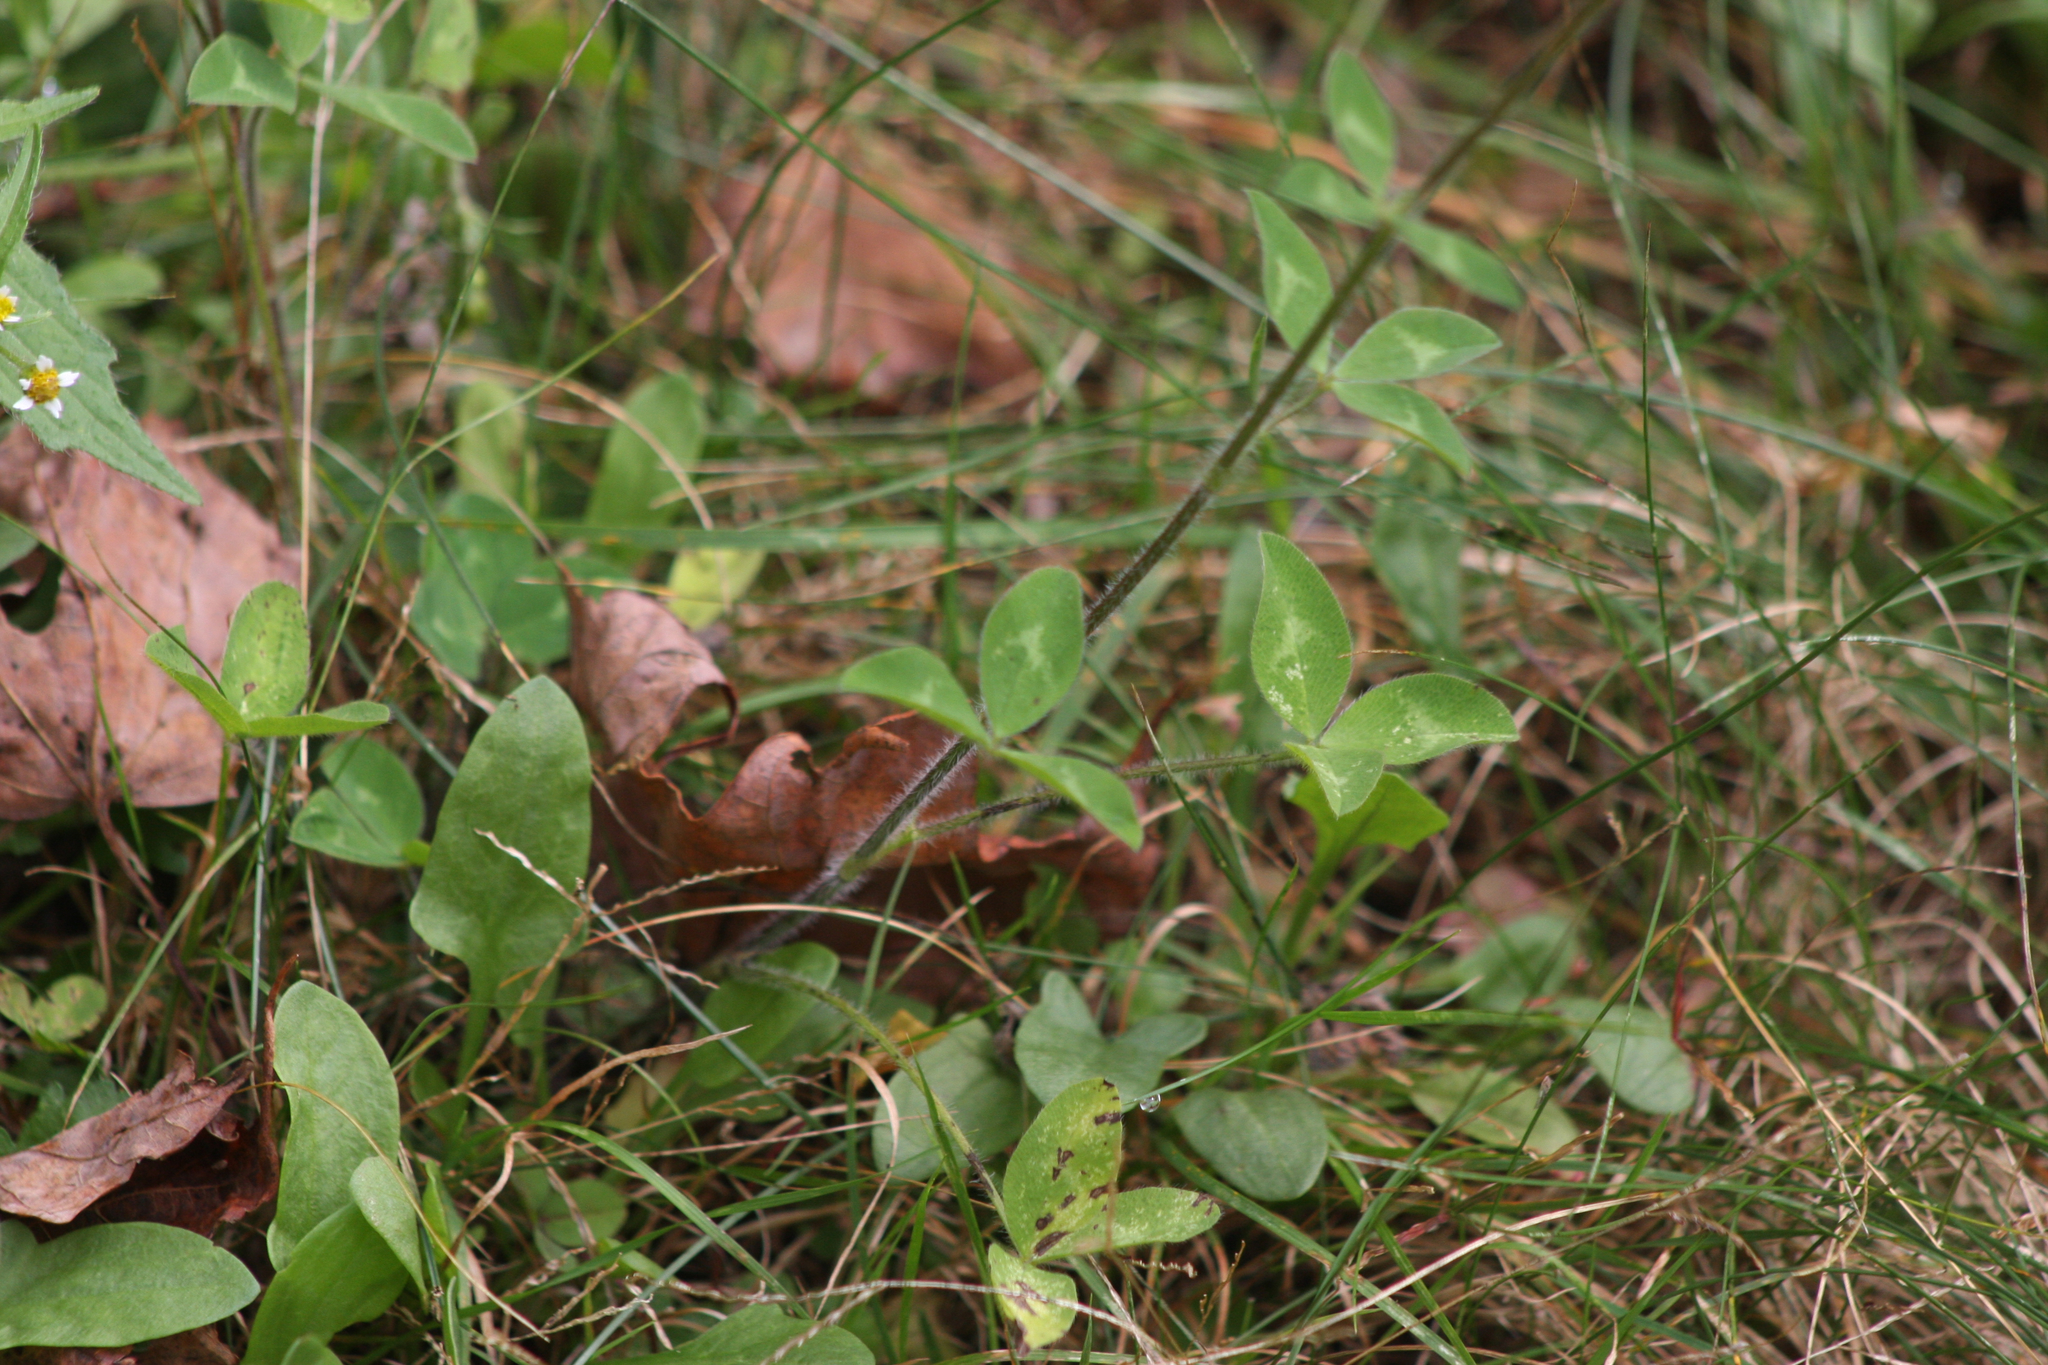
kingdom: Plantae
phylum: Tracheophyta
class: Magnoliopsida
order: Fabales
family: Fabaceae
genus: Trifolium
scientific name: Trifolium pratense
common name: Red clover
